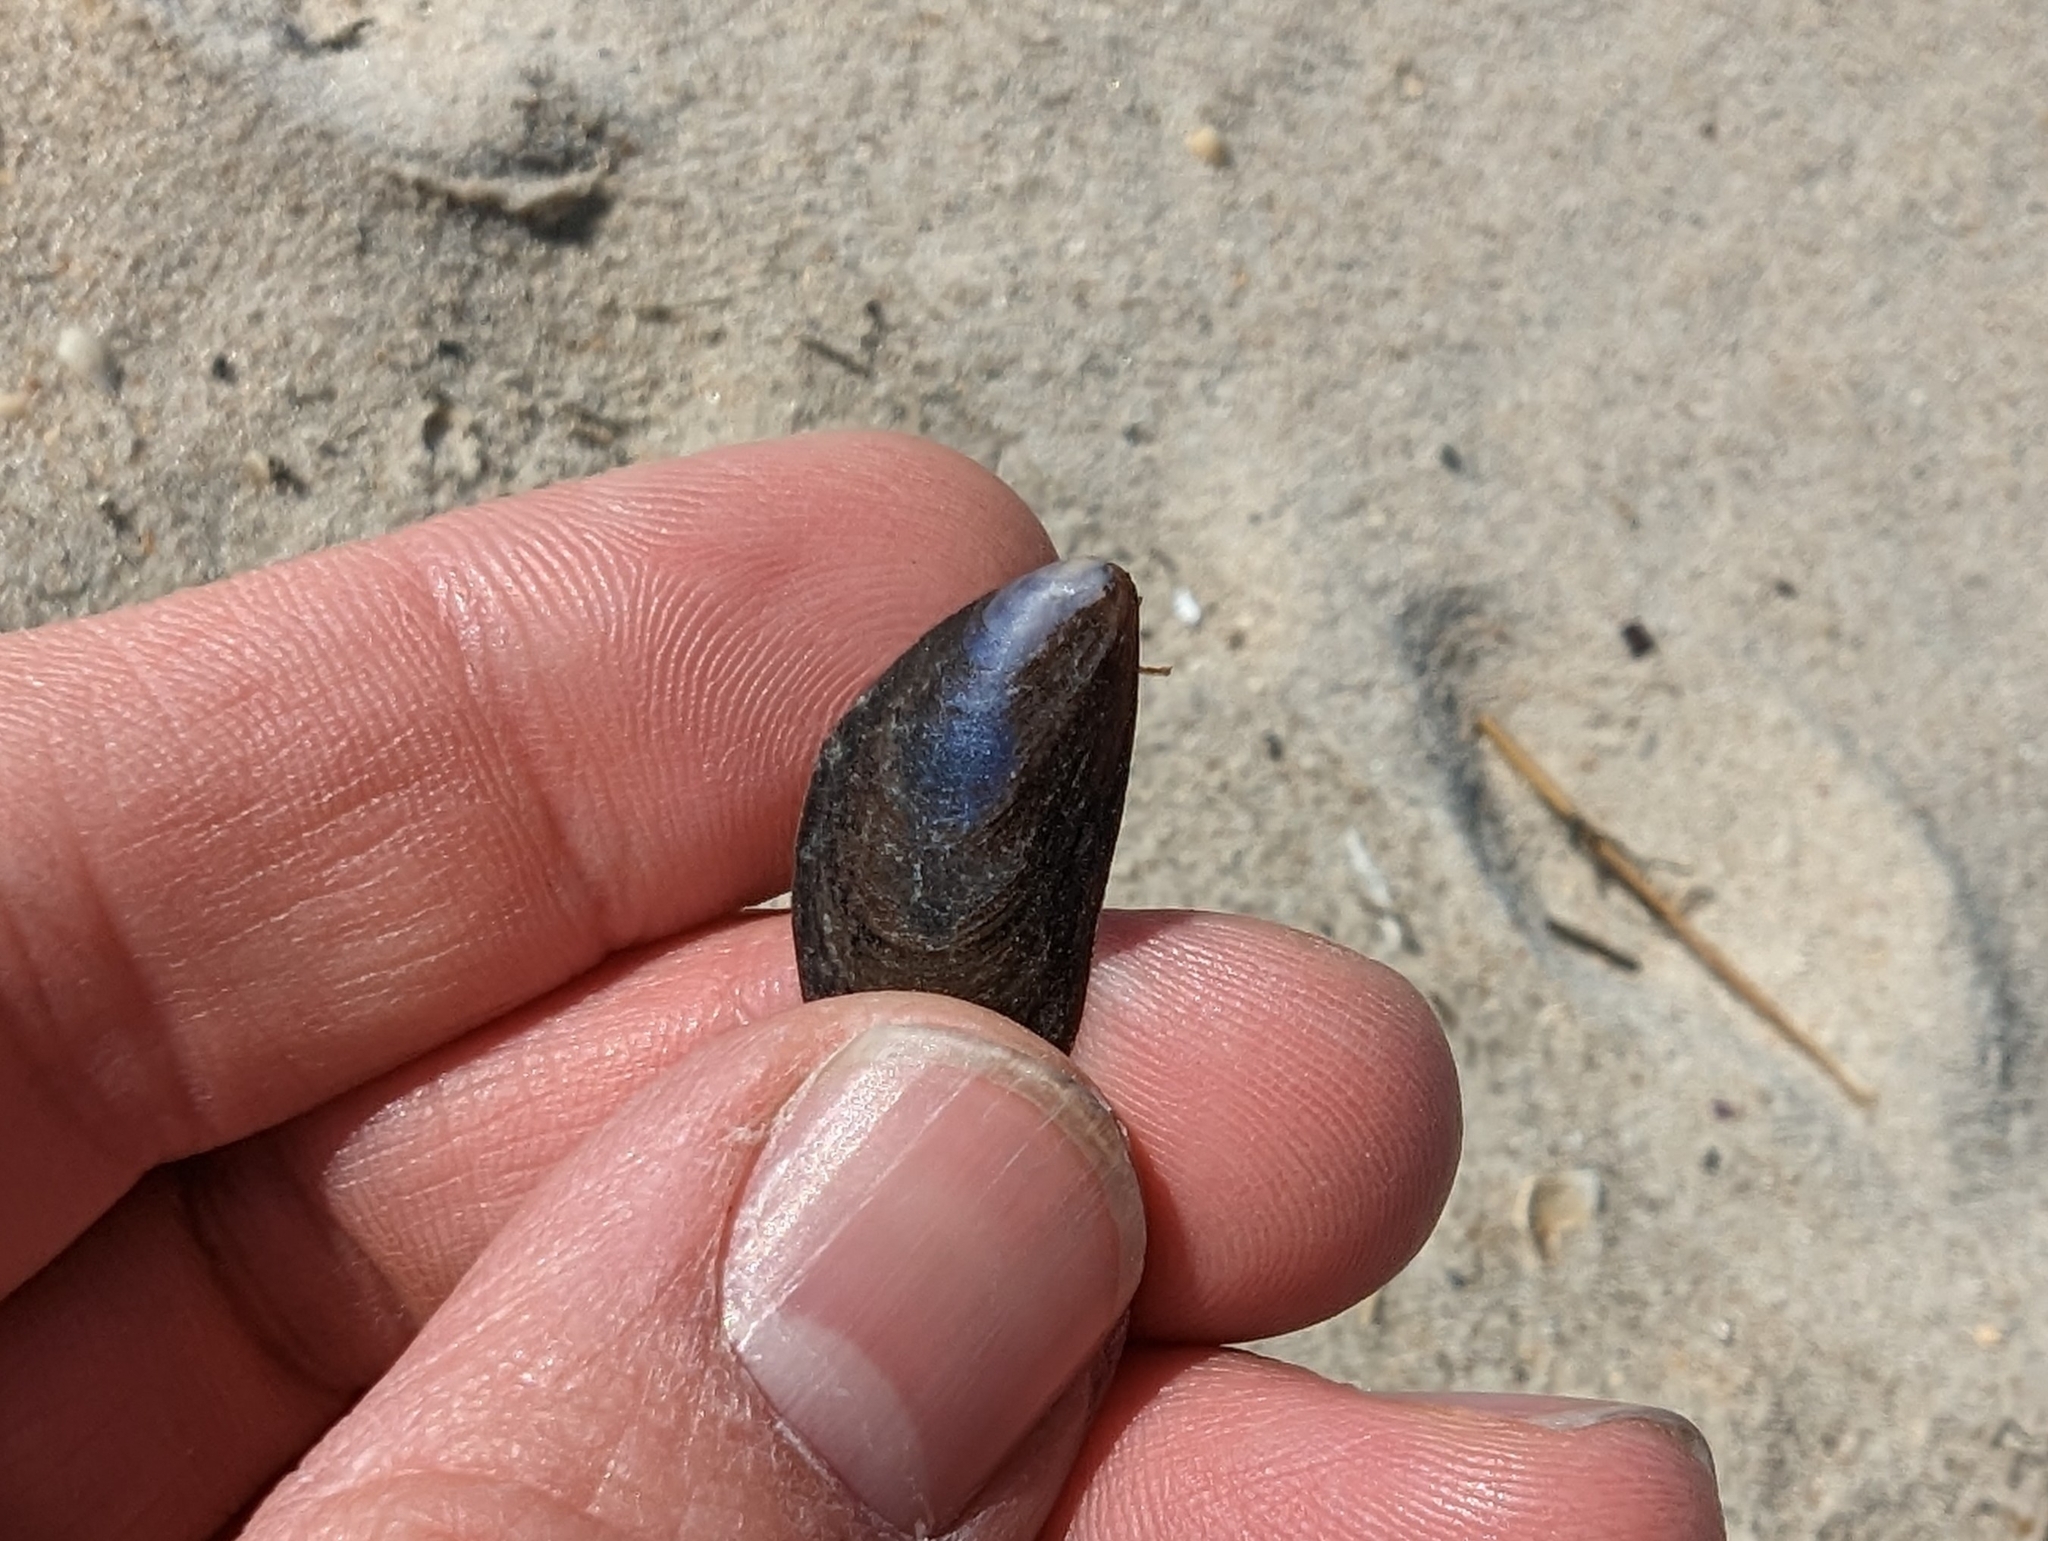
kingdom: Animalia
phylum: Mollusca
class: Bivalvia
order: Mytilida
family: Mytilidae
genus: Mytilus
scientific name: Mytilus edulis
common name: Blue mussel
